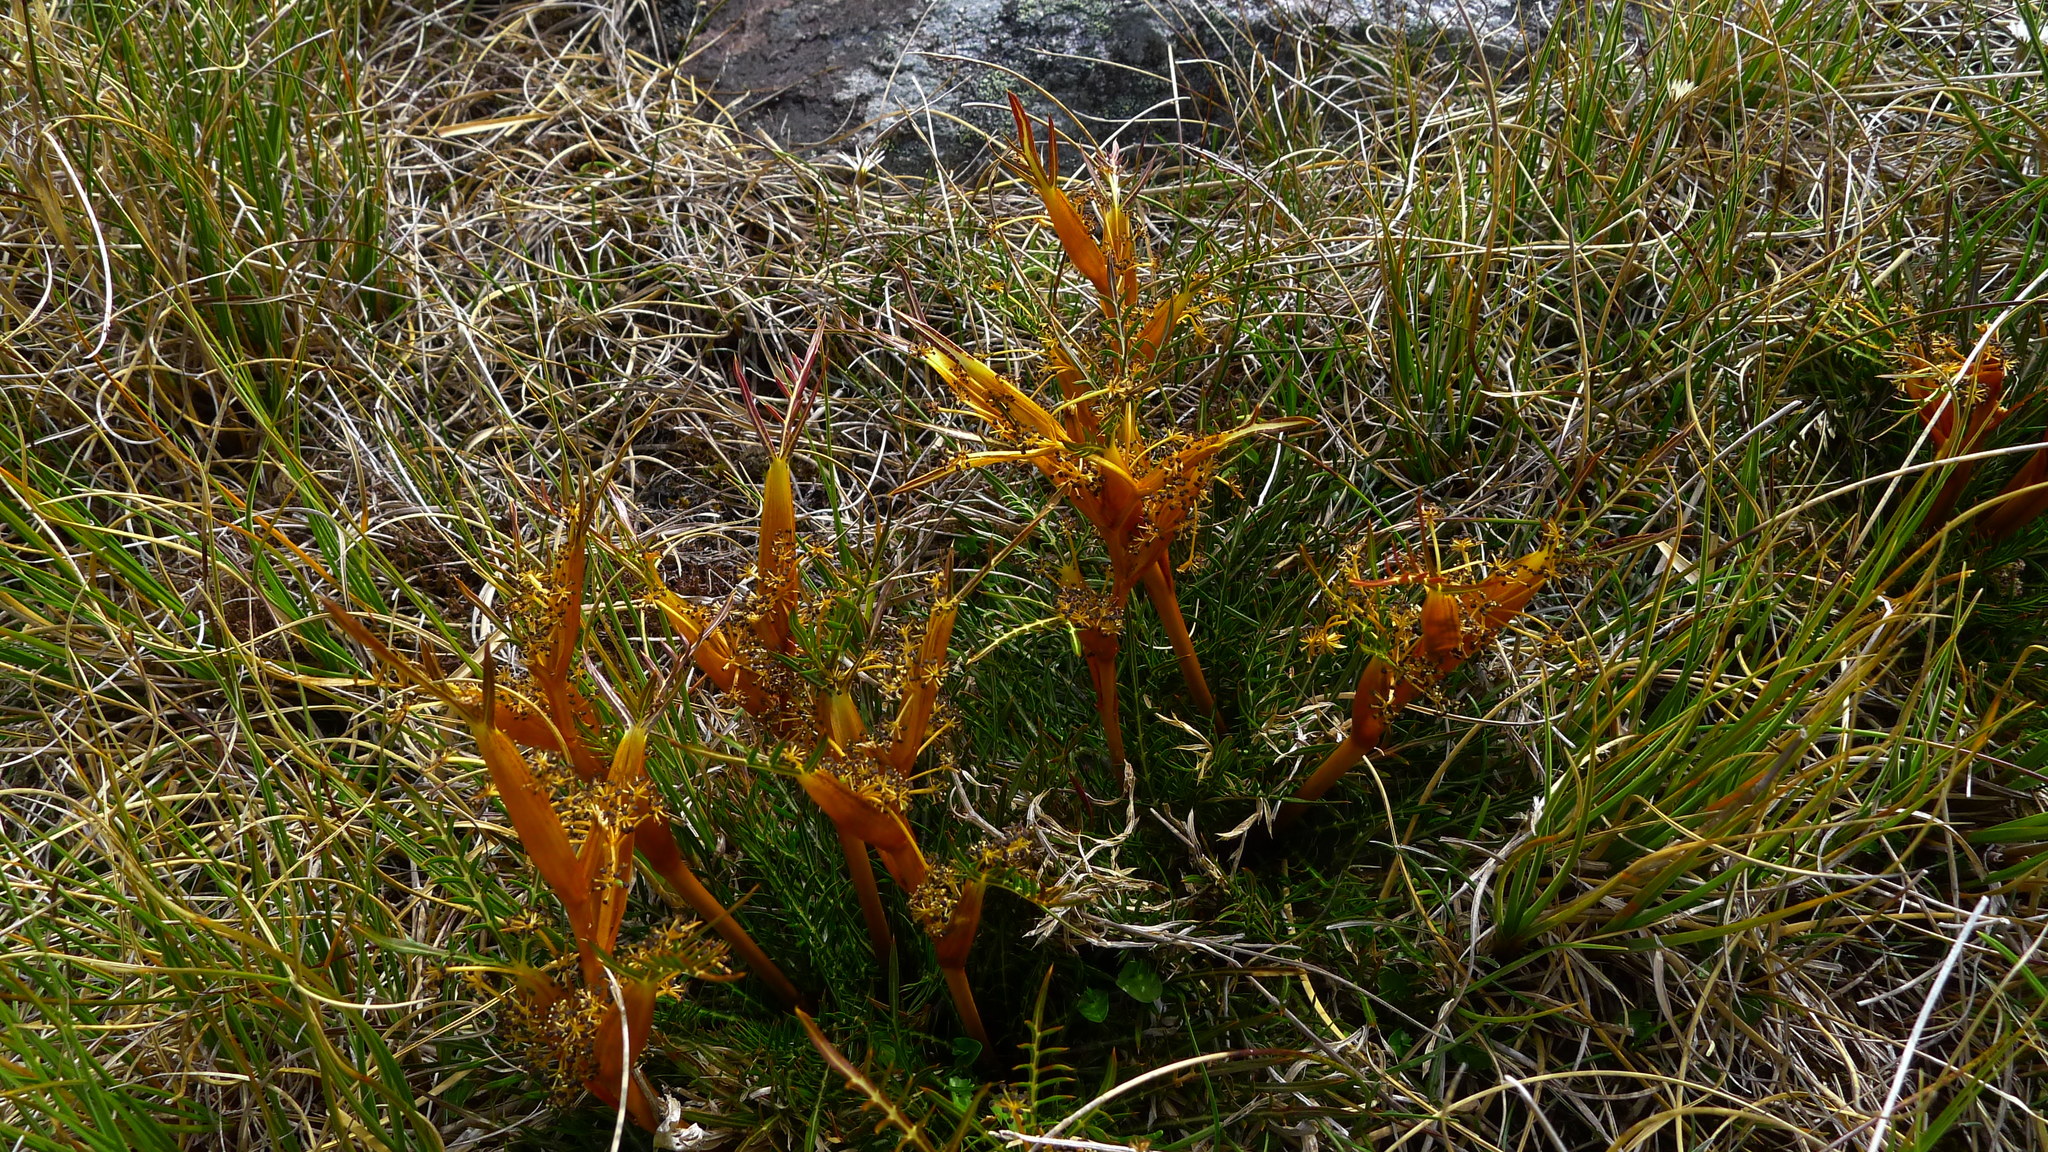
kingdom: Plantae
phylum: Tracheophyta
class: Magnoliopsida
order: Apiales
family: Apiaceae
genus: Aciphylla
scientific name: Aciphylla pinnatifida
